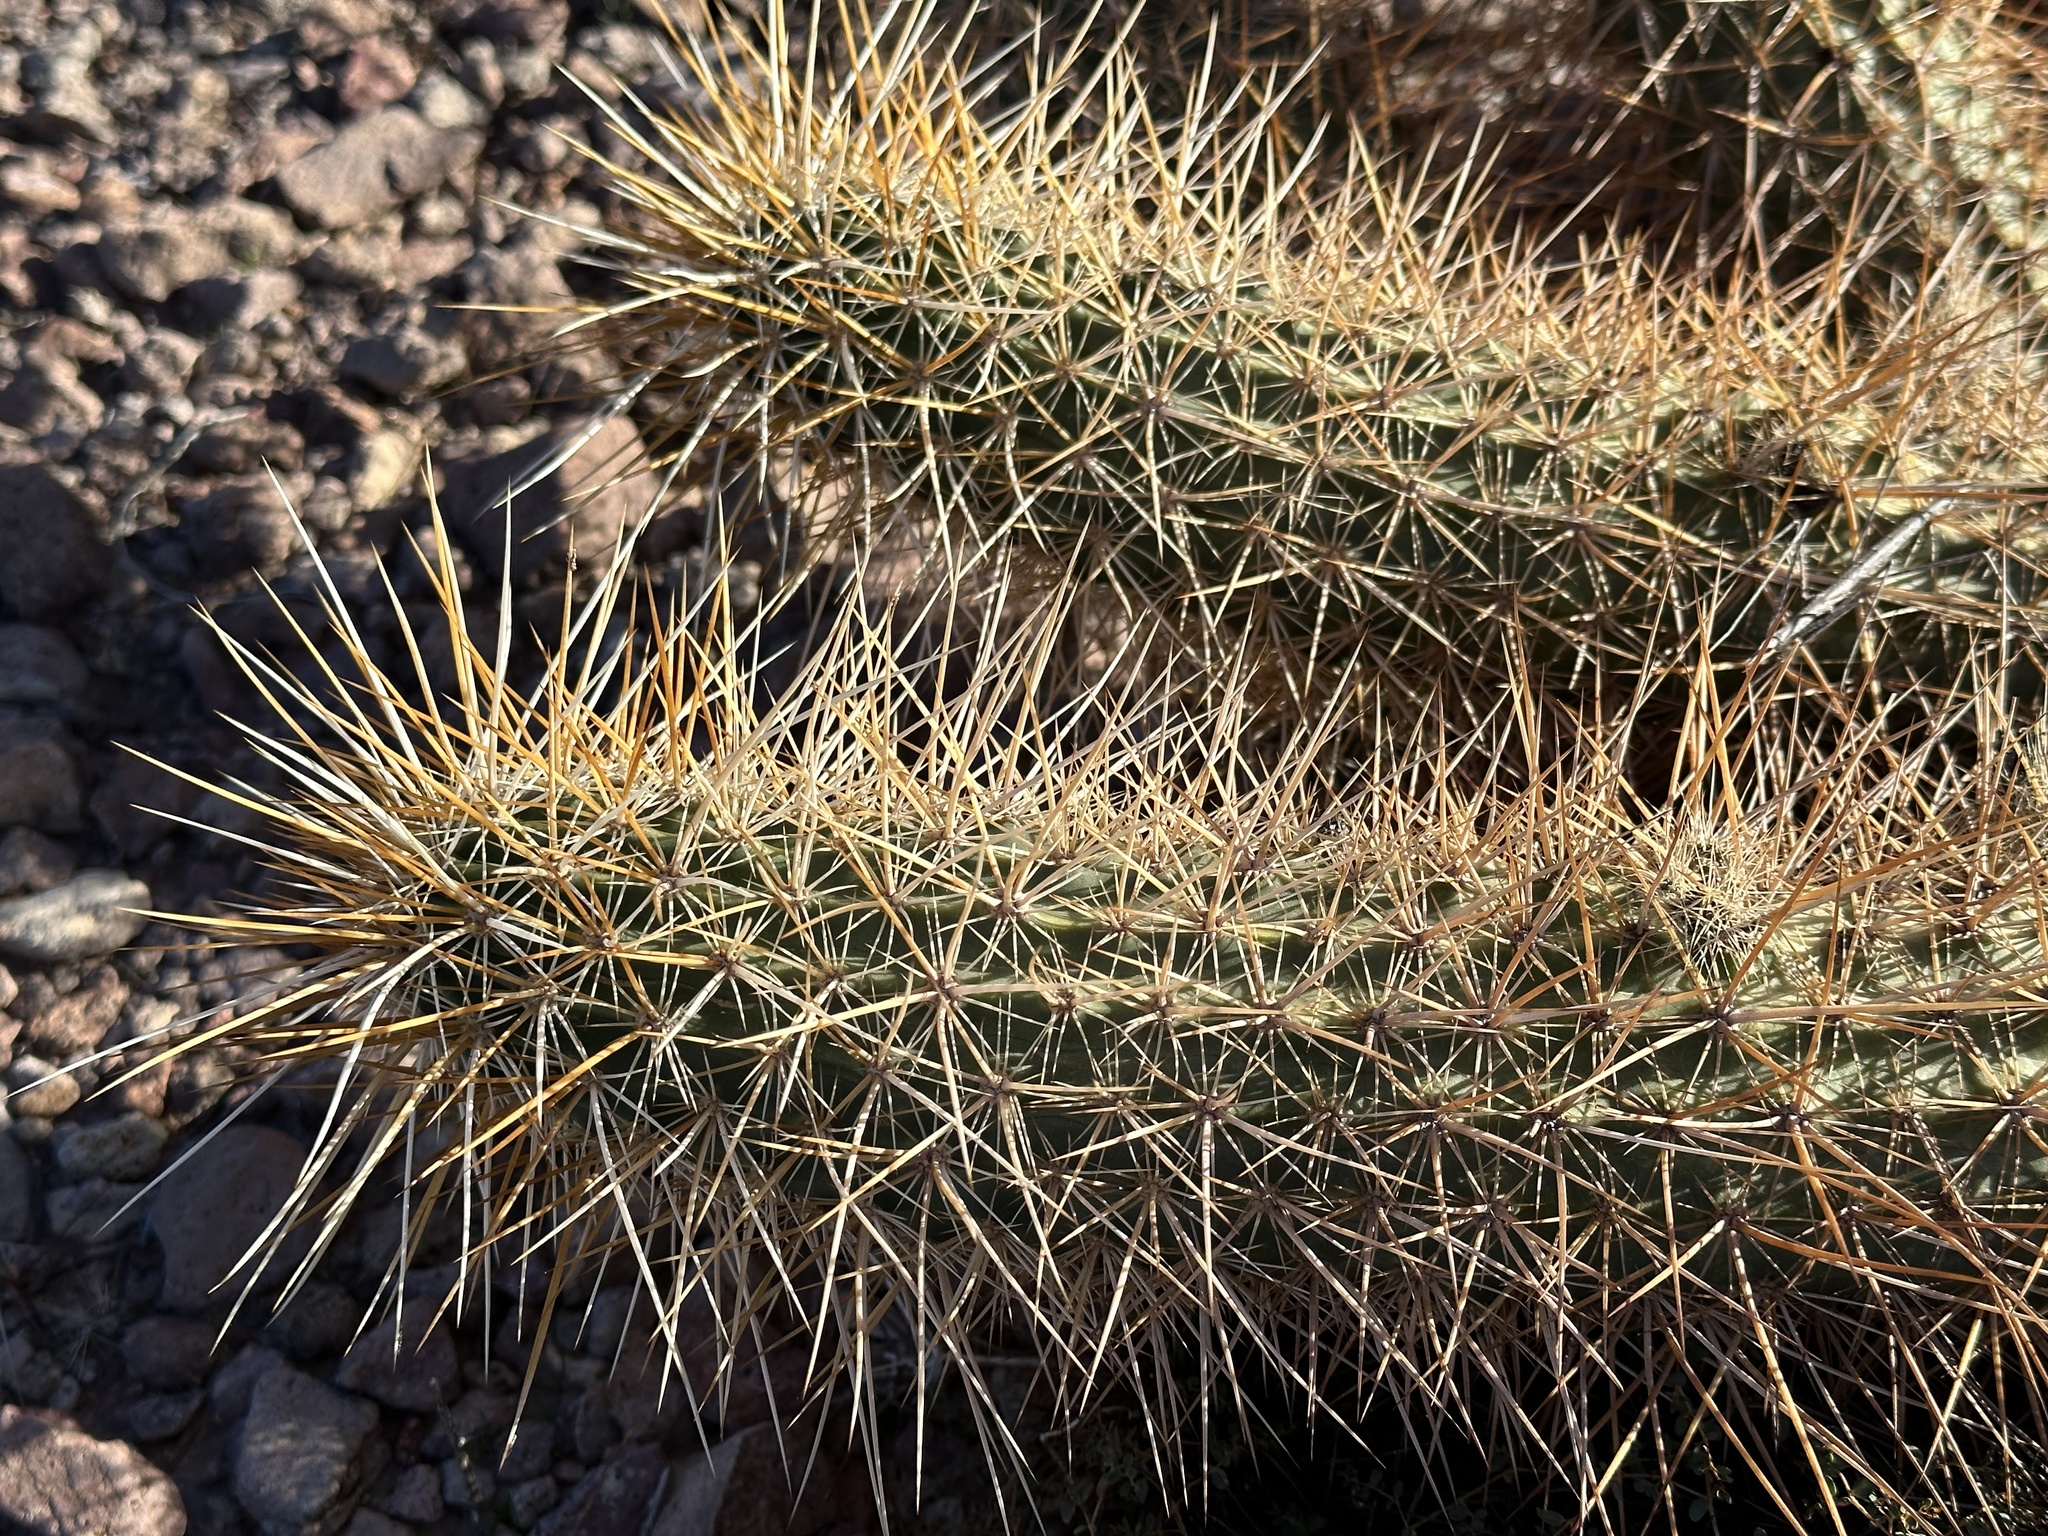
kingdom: Plantae
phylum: Tracheophyta
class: Magnoliopsida
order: Caryophyllales
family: Cactaceae
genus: Echinocereus
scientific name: Echinocereus engelmannii
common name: Engelmann's hedgehog cactus
